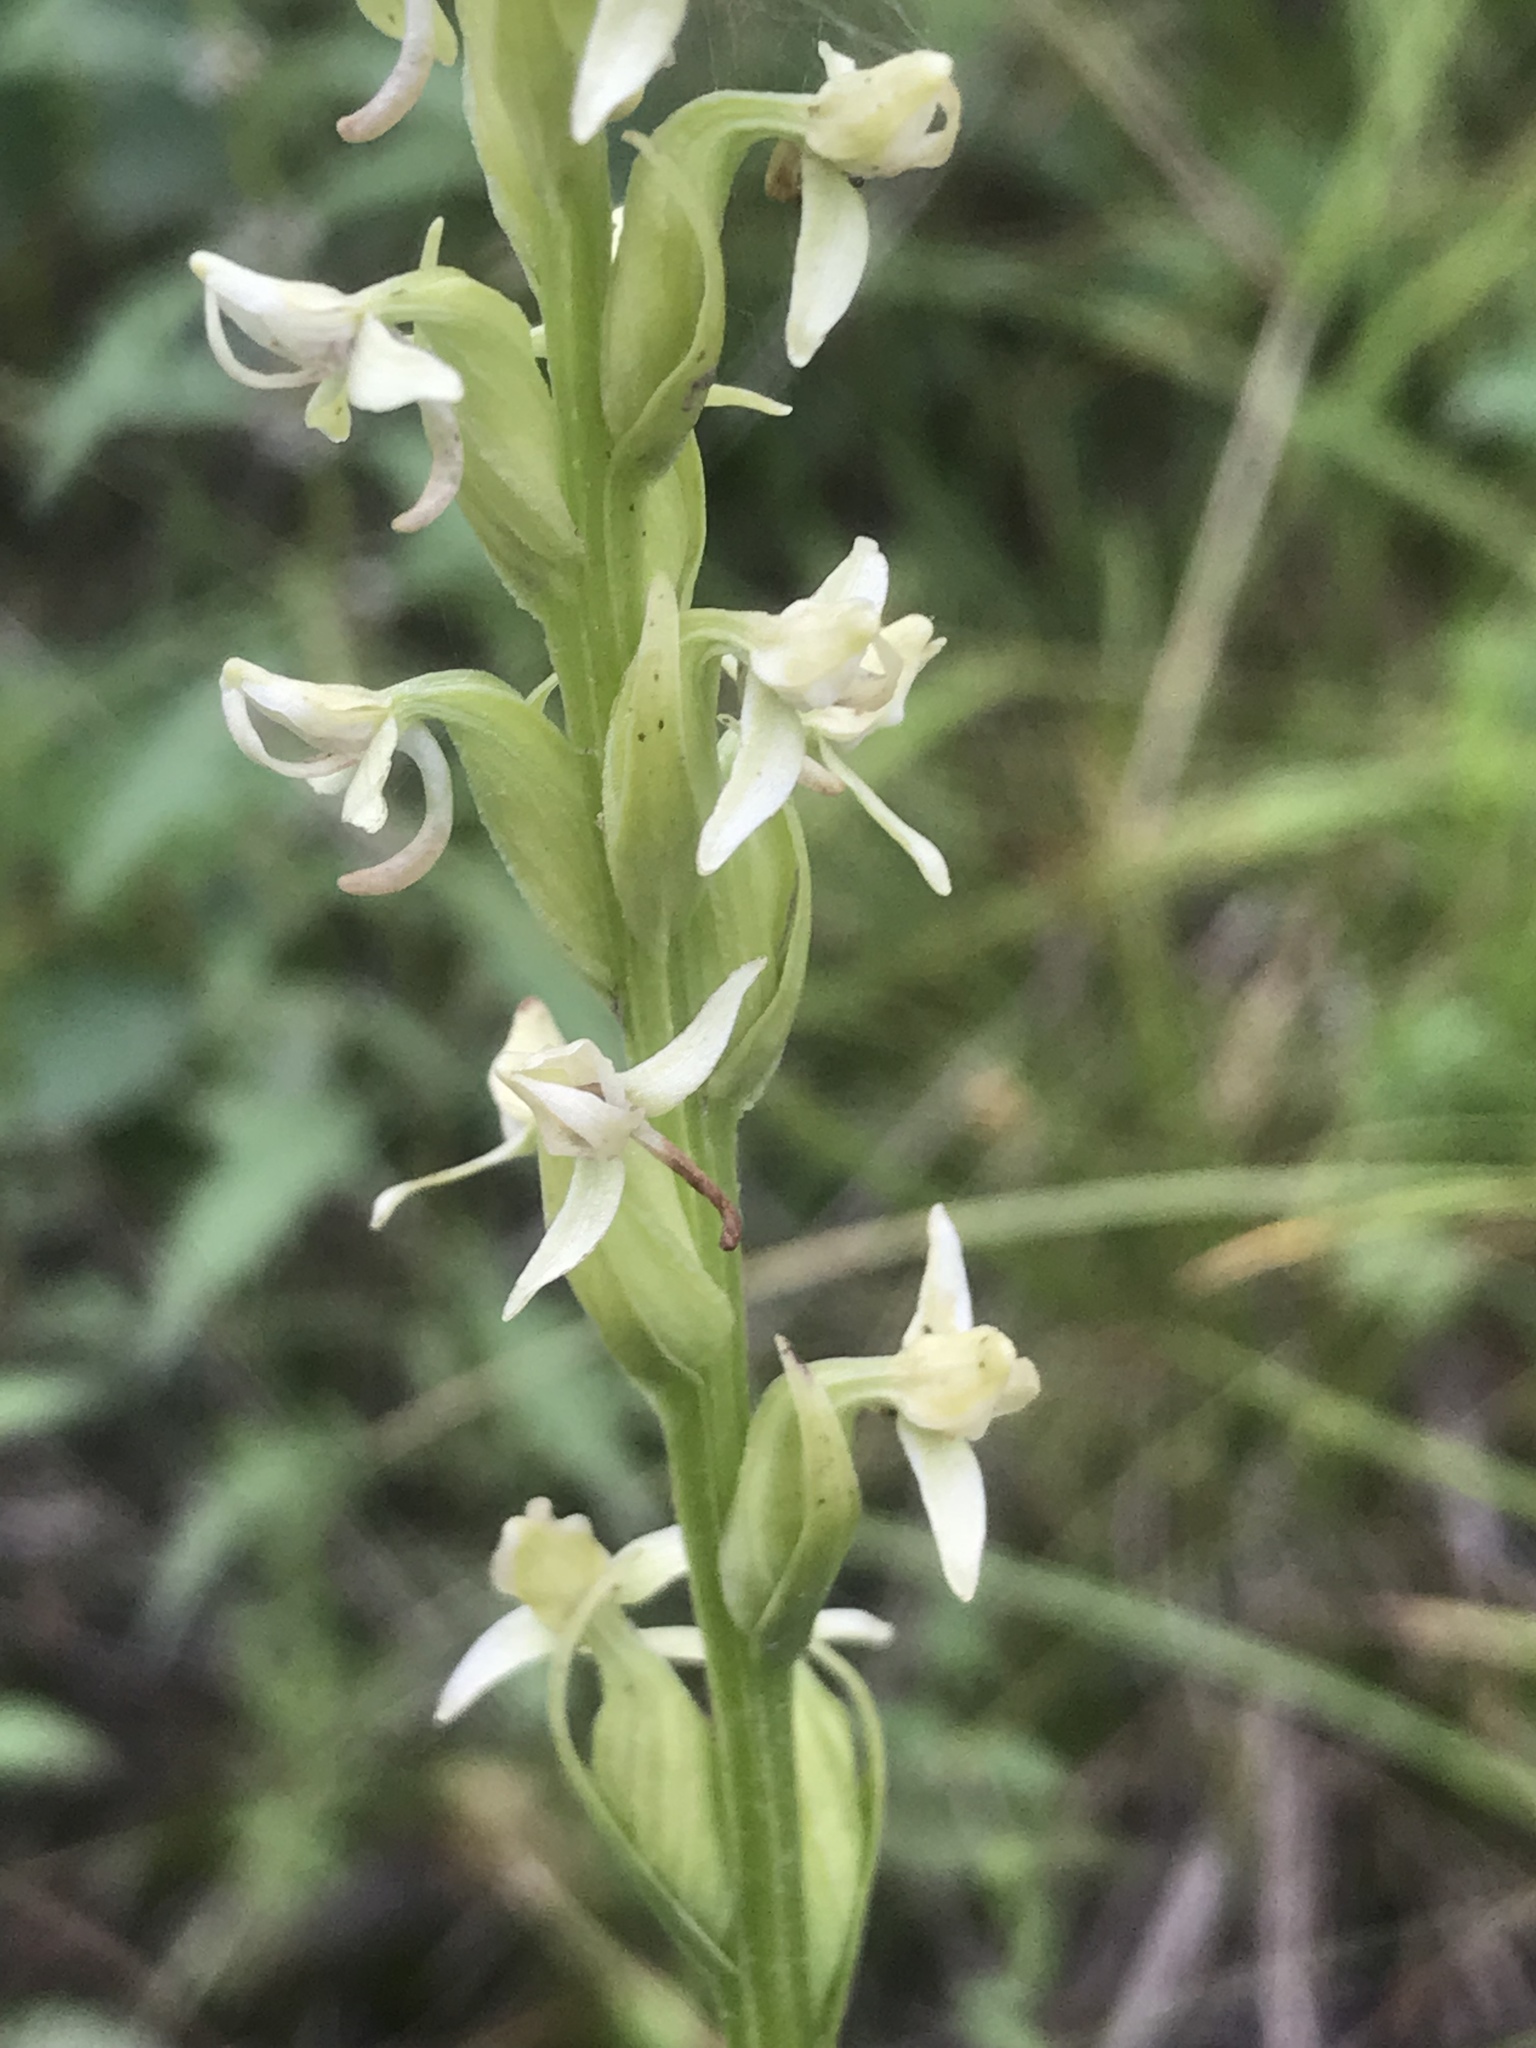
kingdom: Plantae
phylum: Tracheophyta
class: Liliopsida
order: Asparagales
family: Orchidaceae
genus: Platanthera
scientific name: Platanthera dilatata
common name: Bog candles
